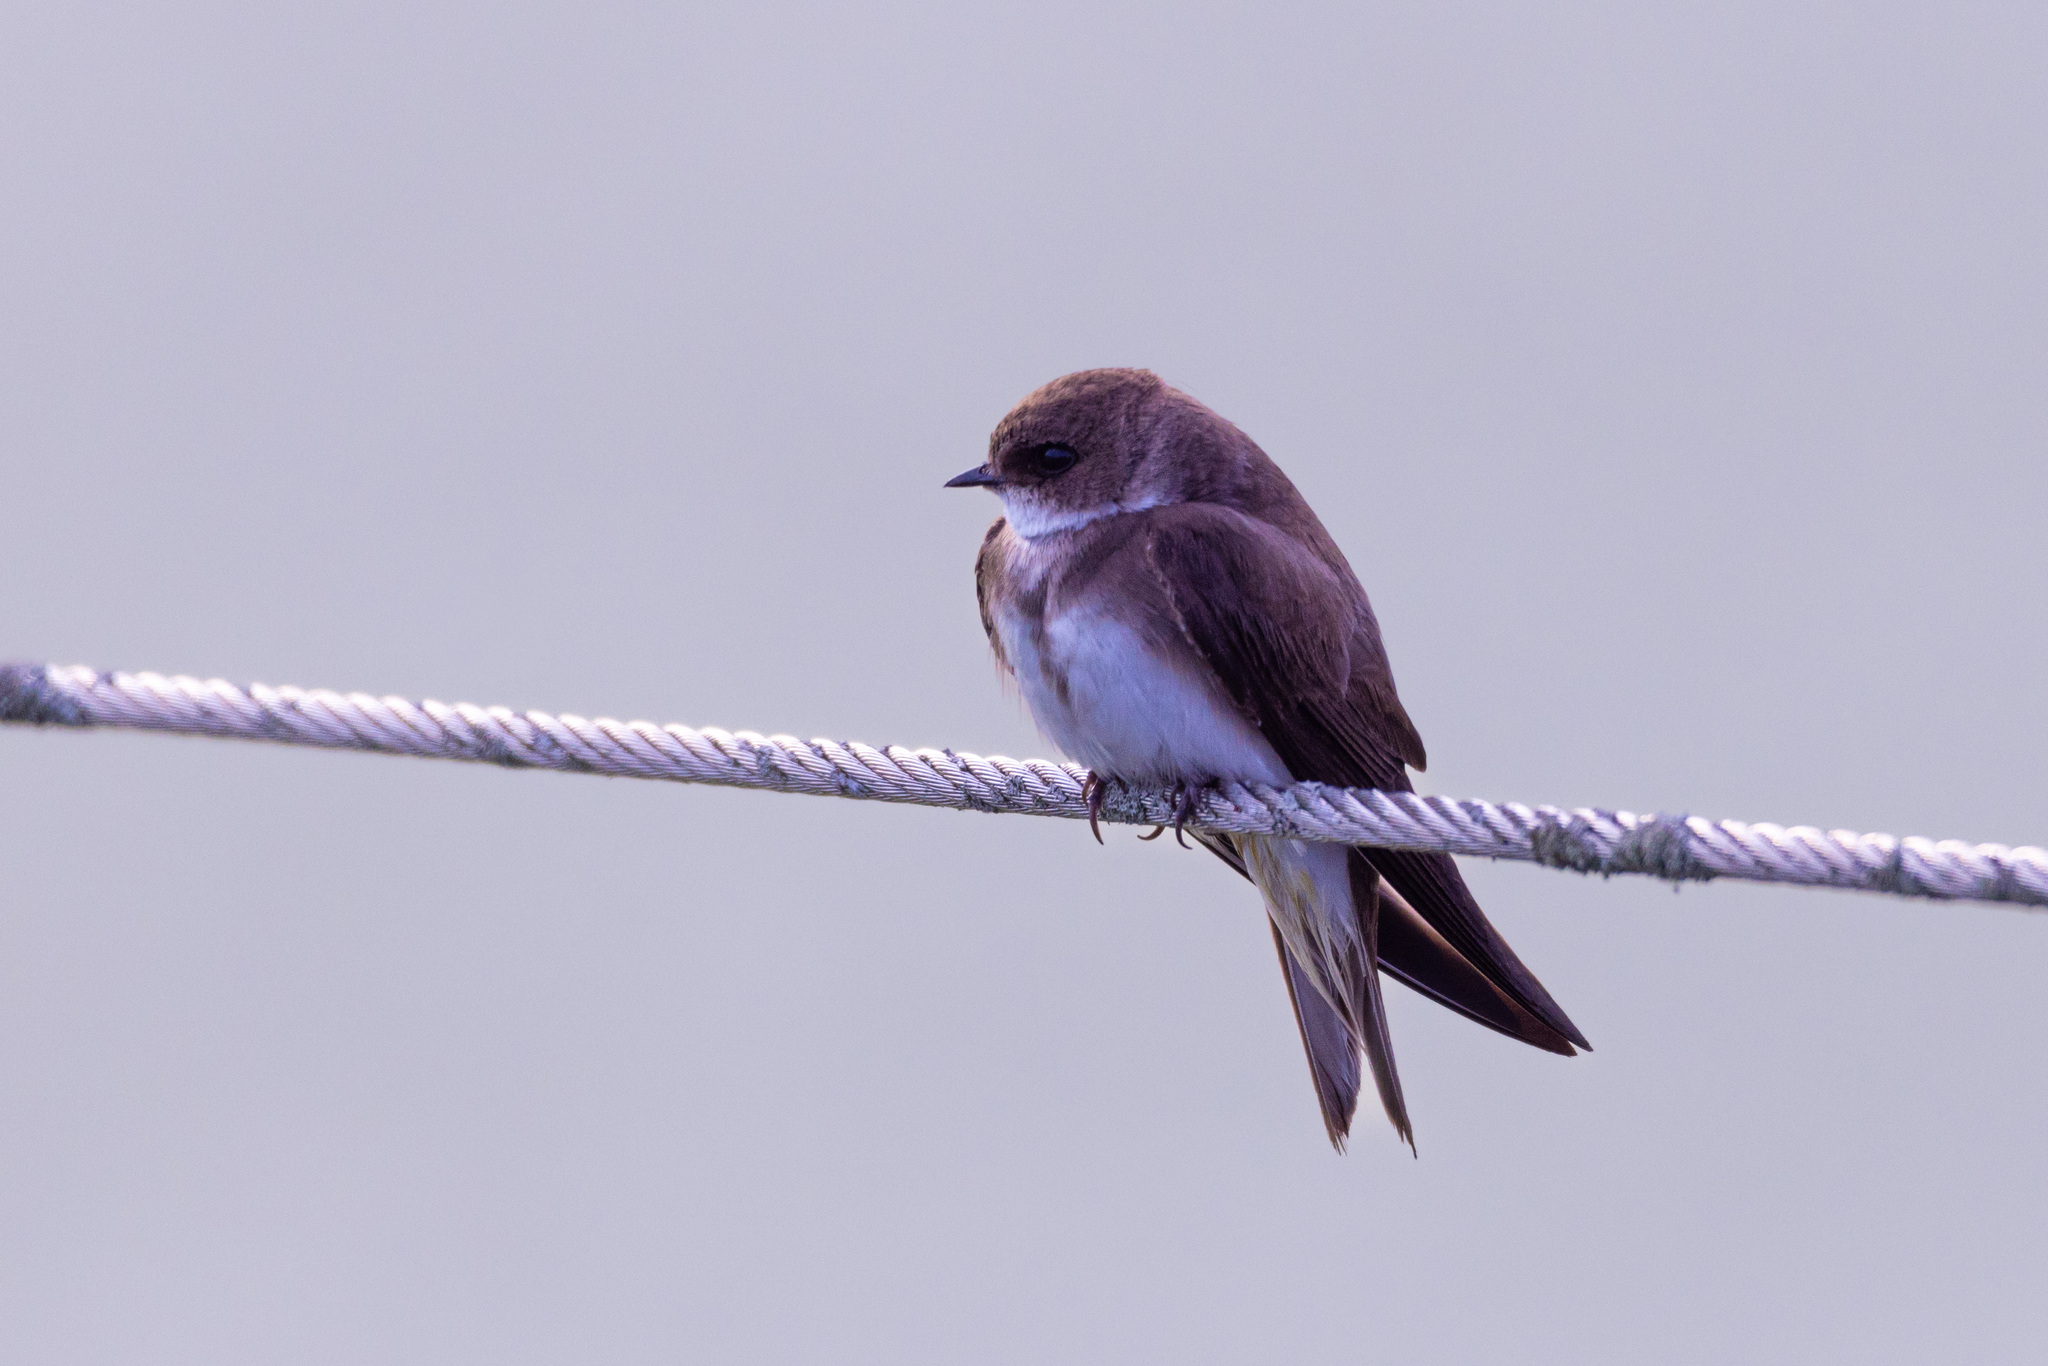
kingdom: Animalia
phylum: Chordata
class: Aves
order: Passeriformes
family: Hirundinidae
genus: Riparia
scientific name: Riparia riparia
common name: Sand martin
